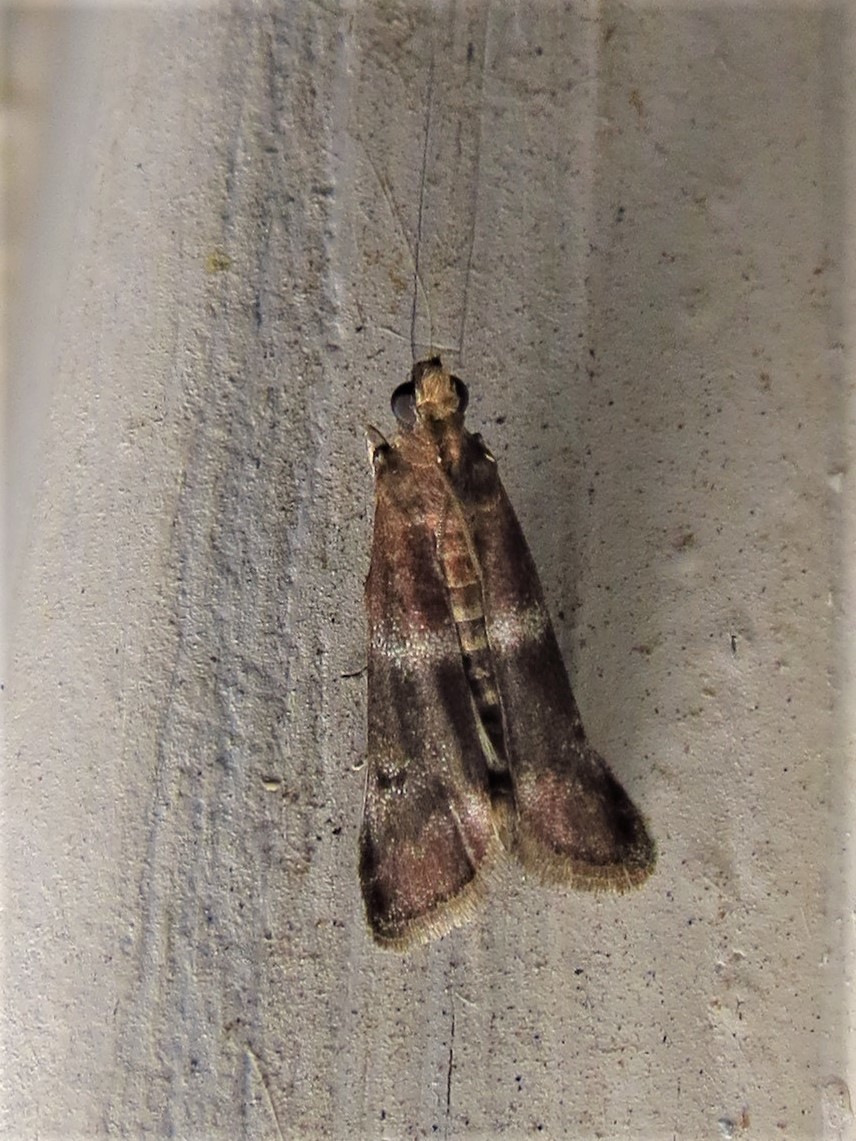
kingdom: Animalia
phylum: Arthropoda
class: Insecta
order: Lepidoptera
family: Pyralidae
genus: Moodna
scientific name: Moodna ostrinella
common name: Darker moodna moth
